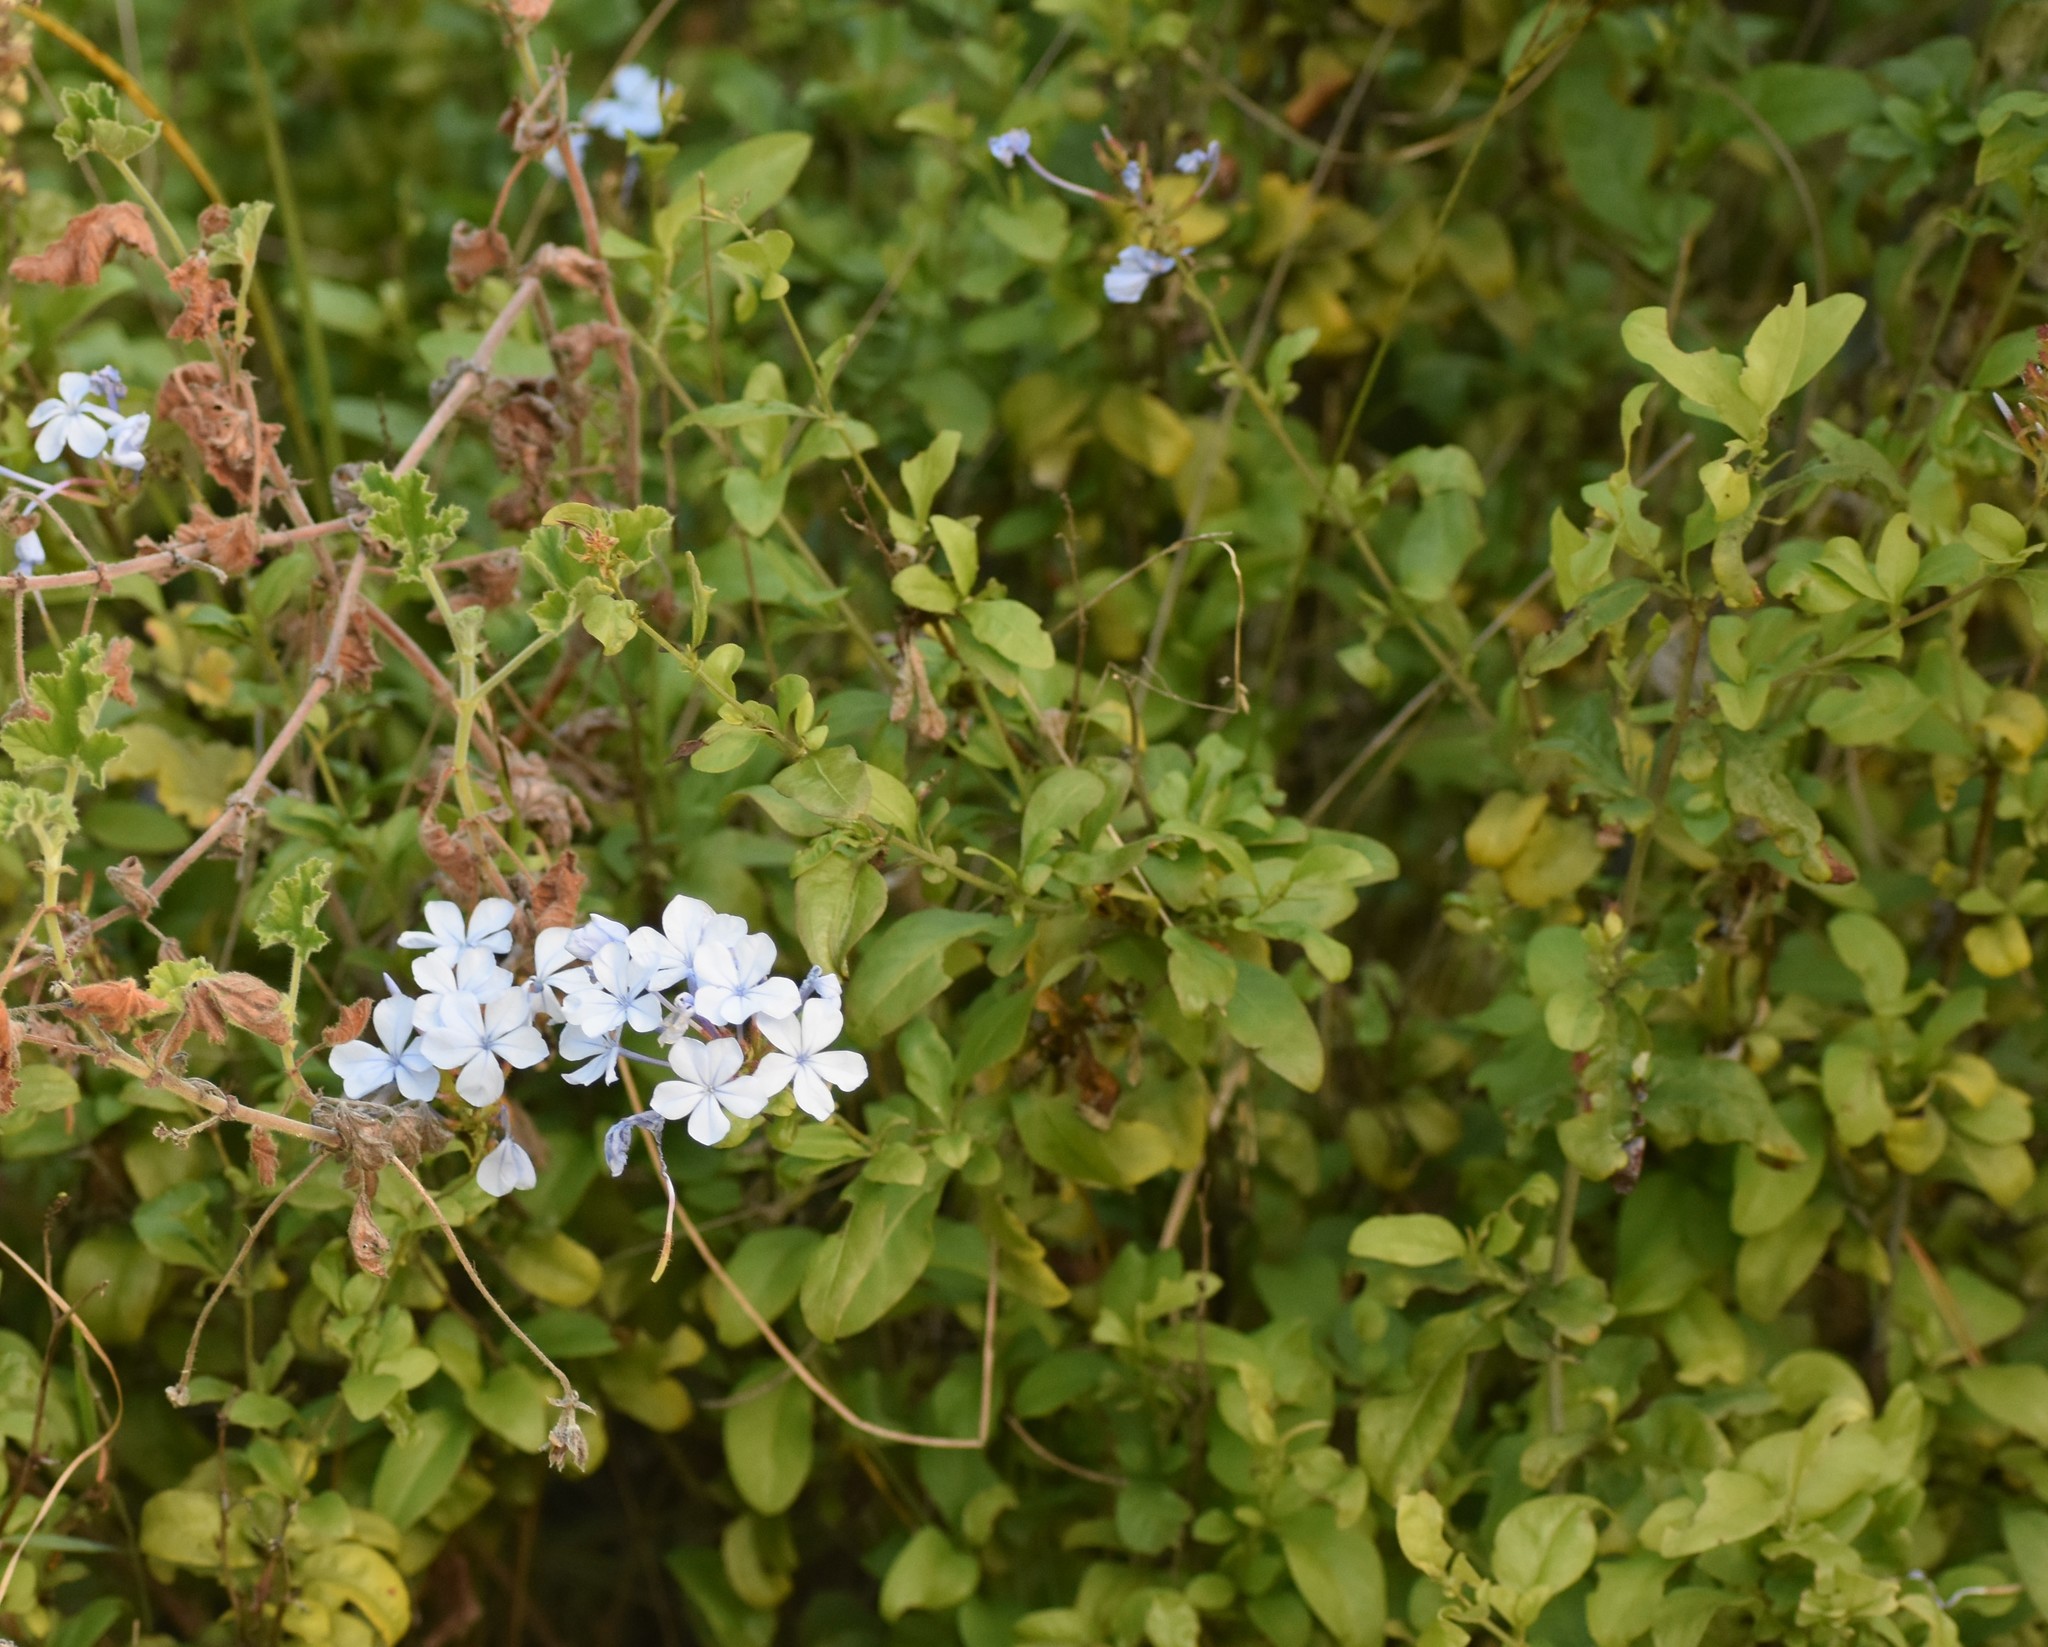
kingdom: Plantae
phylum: Tracheophyta
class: Magnoliopsida
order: Caryophyllales
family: Plumbaginaceae
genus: Plumbago
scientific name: Plumbago auriculata
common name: Cape leadwort
